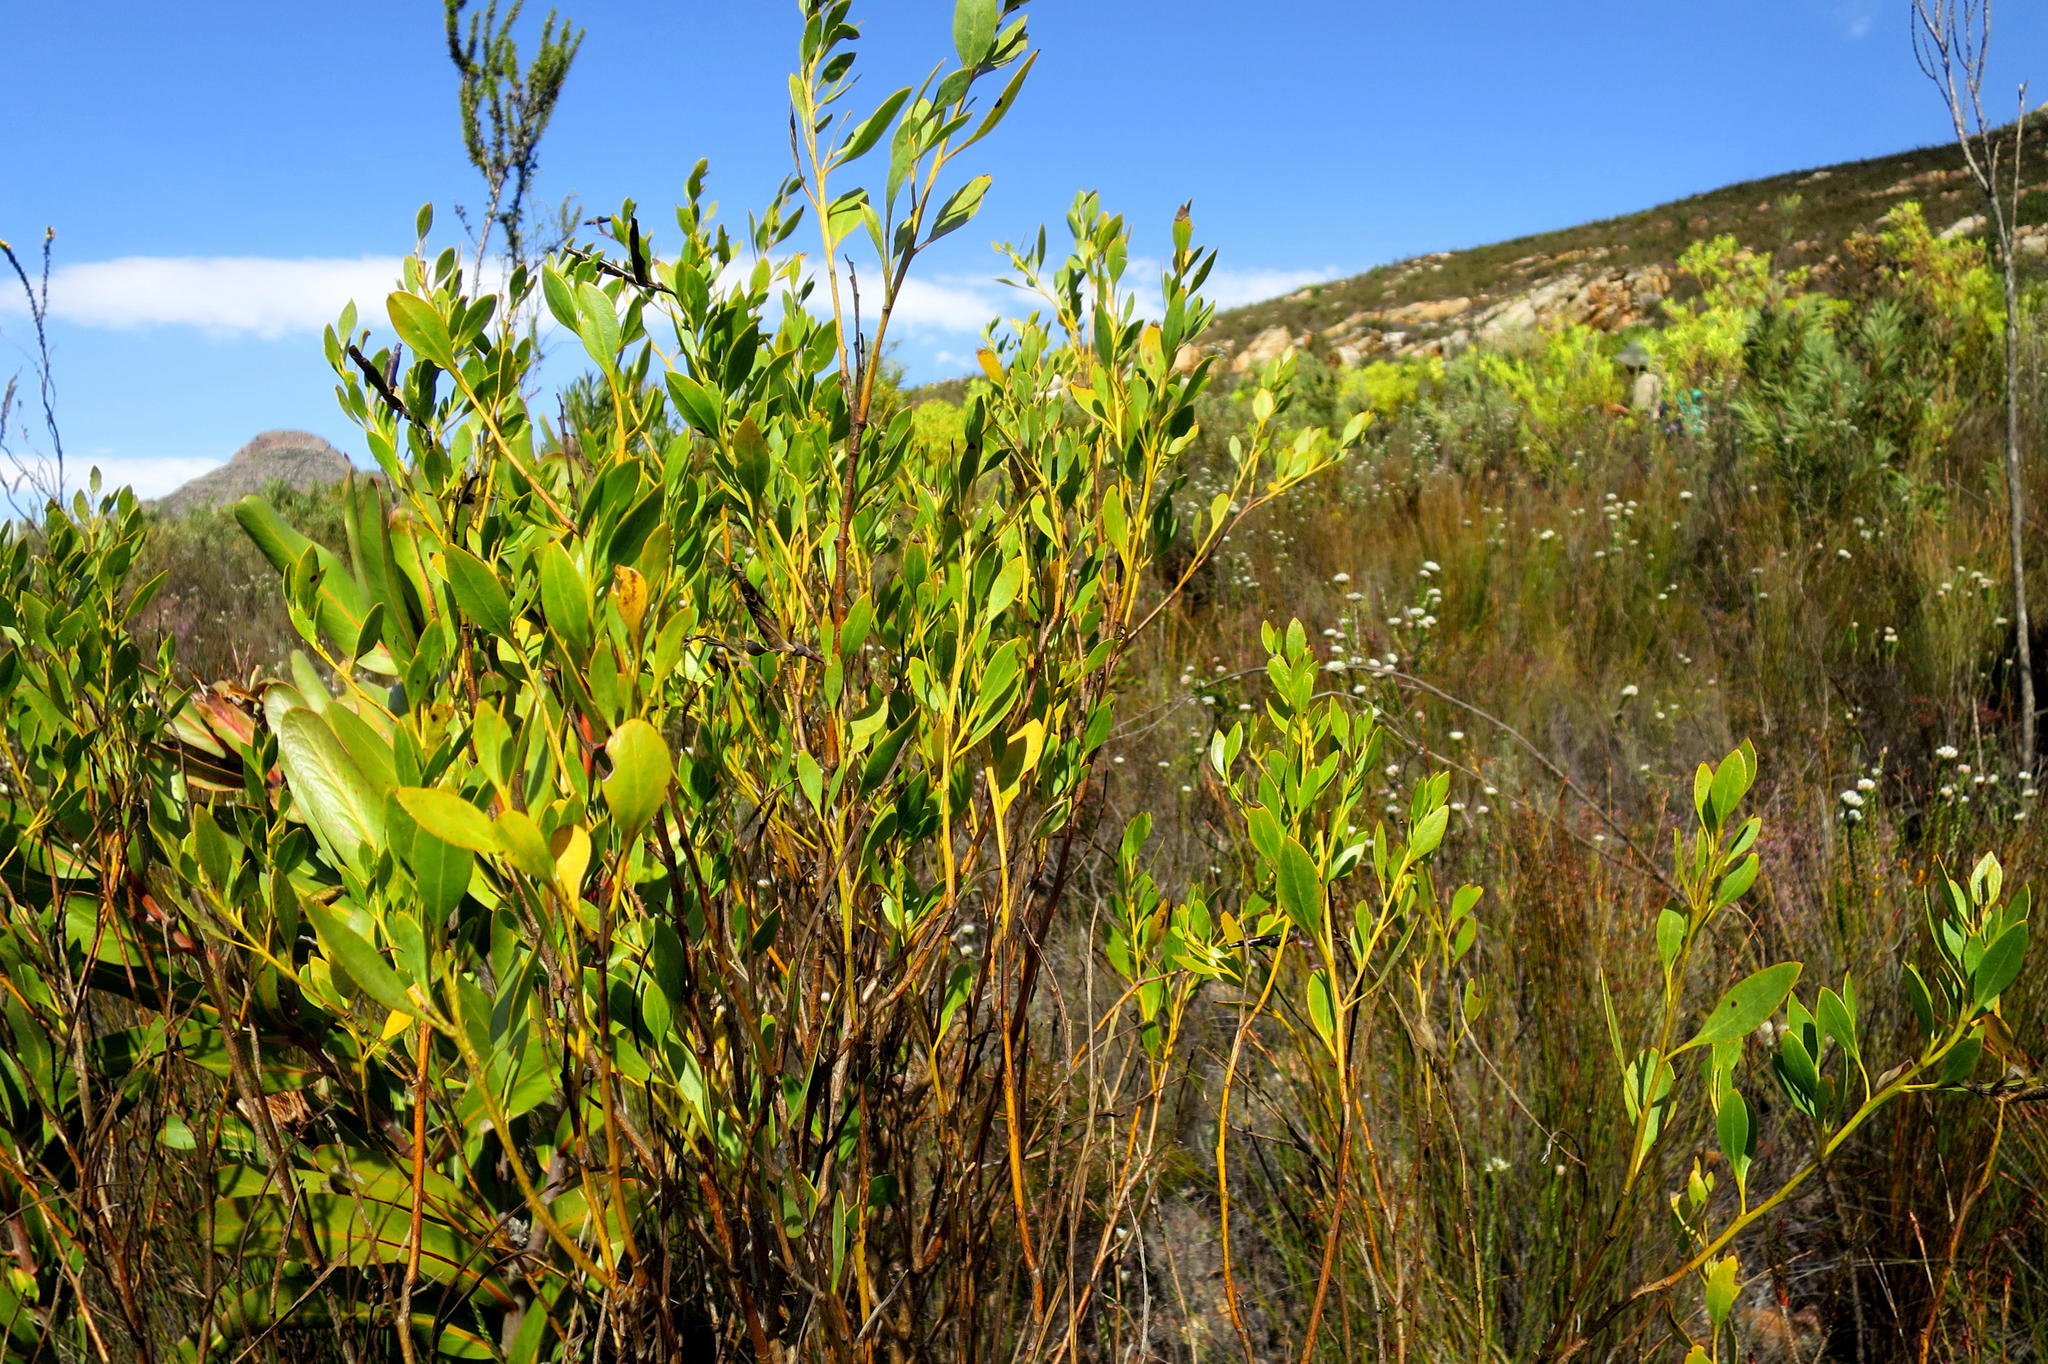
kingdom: Plantae
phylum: Tracheophyta
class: Magnoliopsida
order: Fabales
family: Fabaceae
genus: Rafnia
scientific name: Rafnia vlokii
